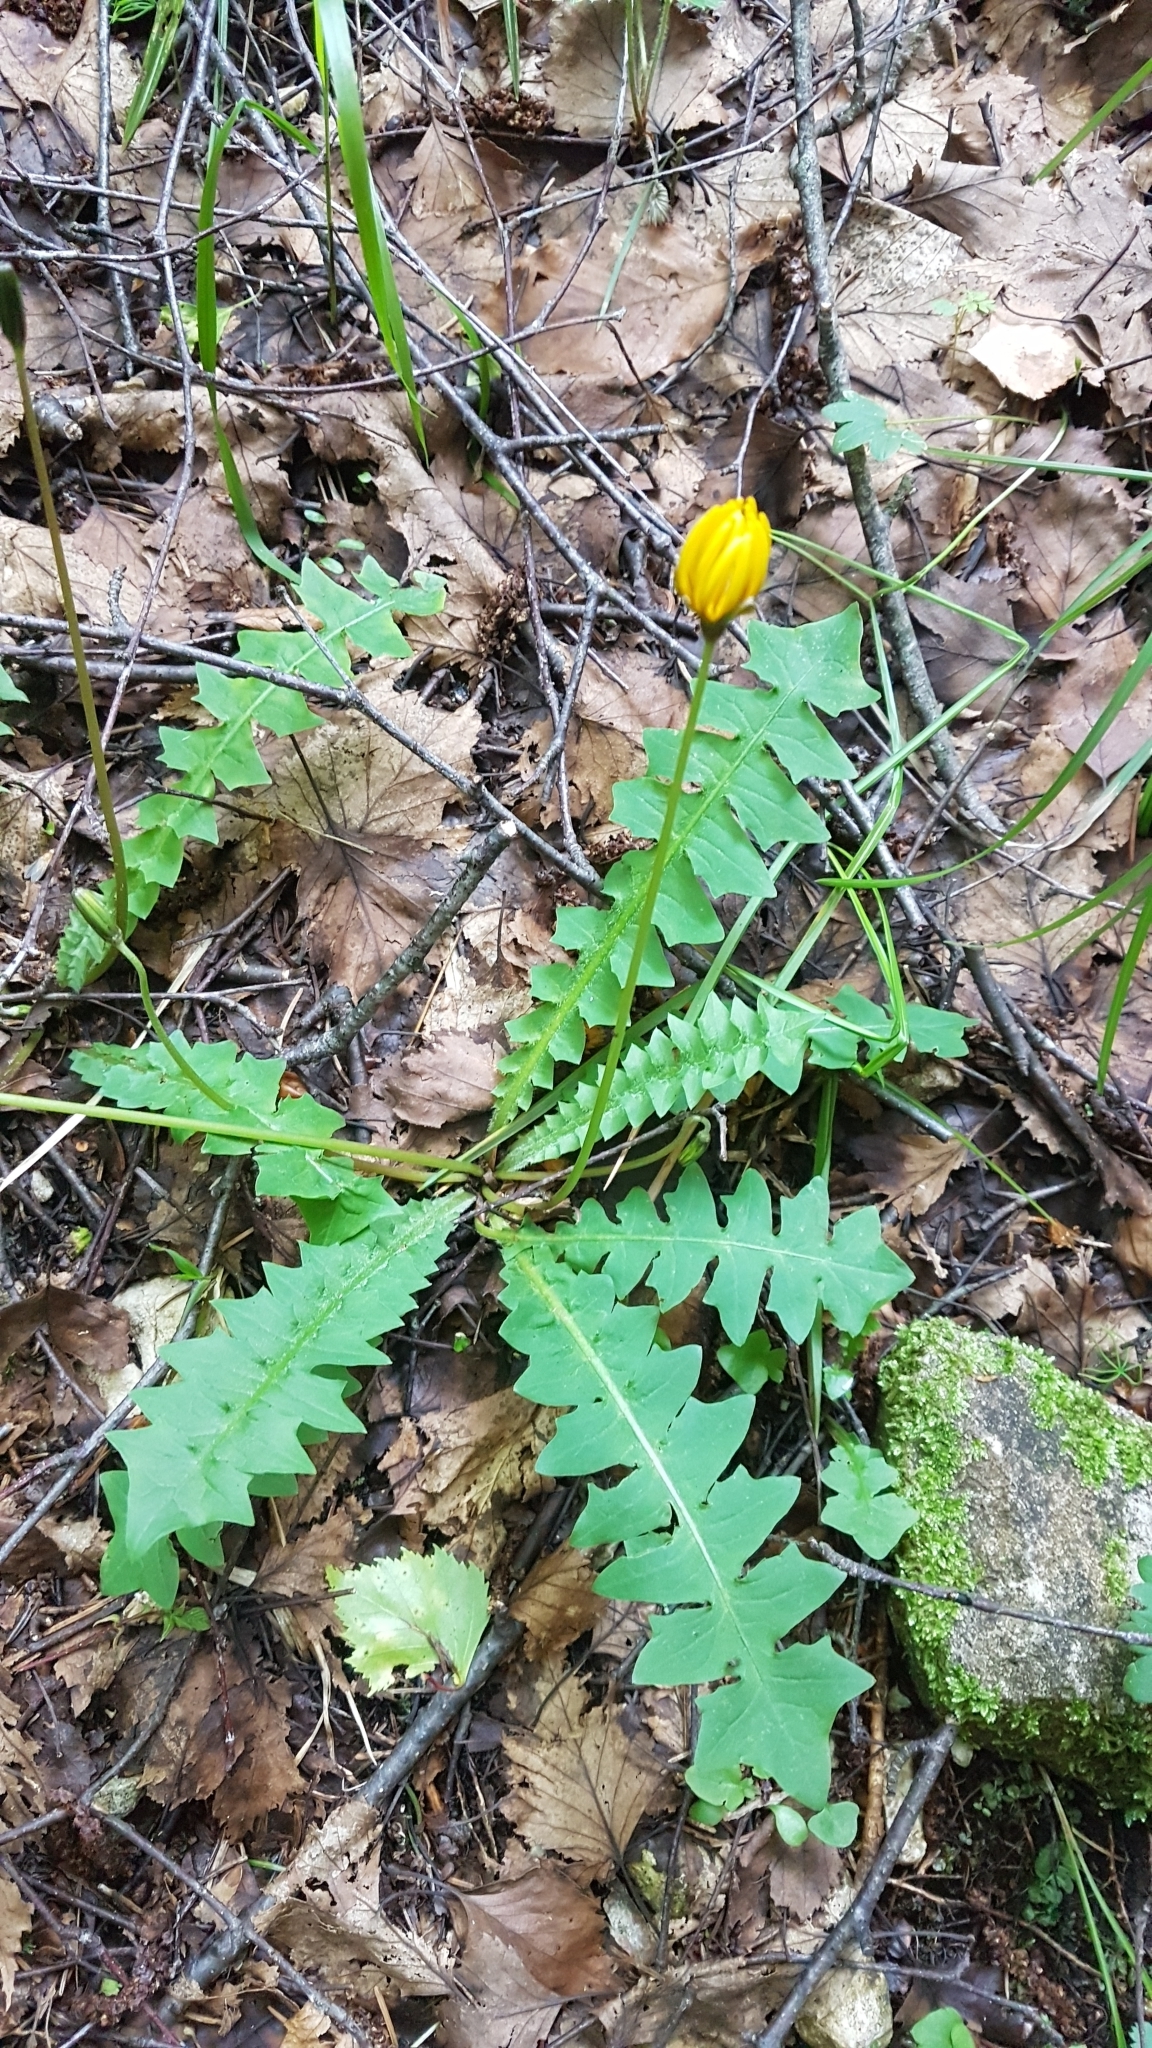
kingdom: Plantae
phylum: Tracheophyta
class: Magnoliopsida
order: Asterales
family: Asteraceae
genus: Aposeris
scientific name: Aposeris foetida
